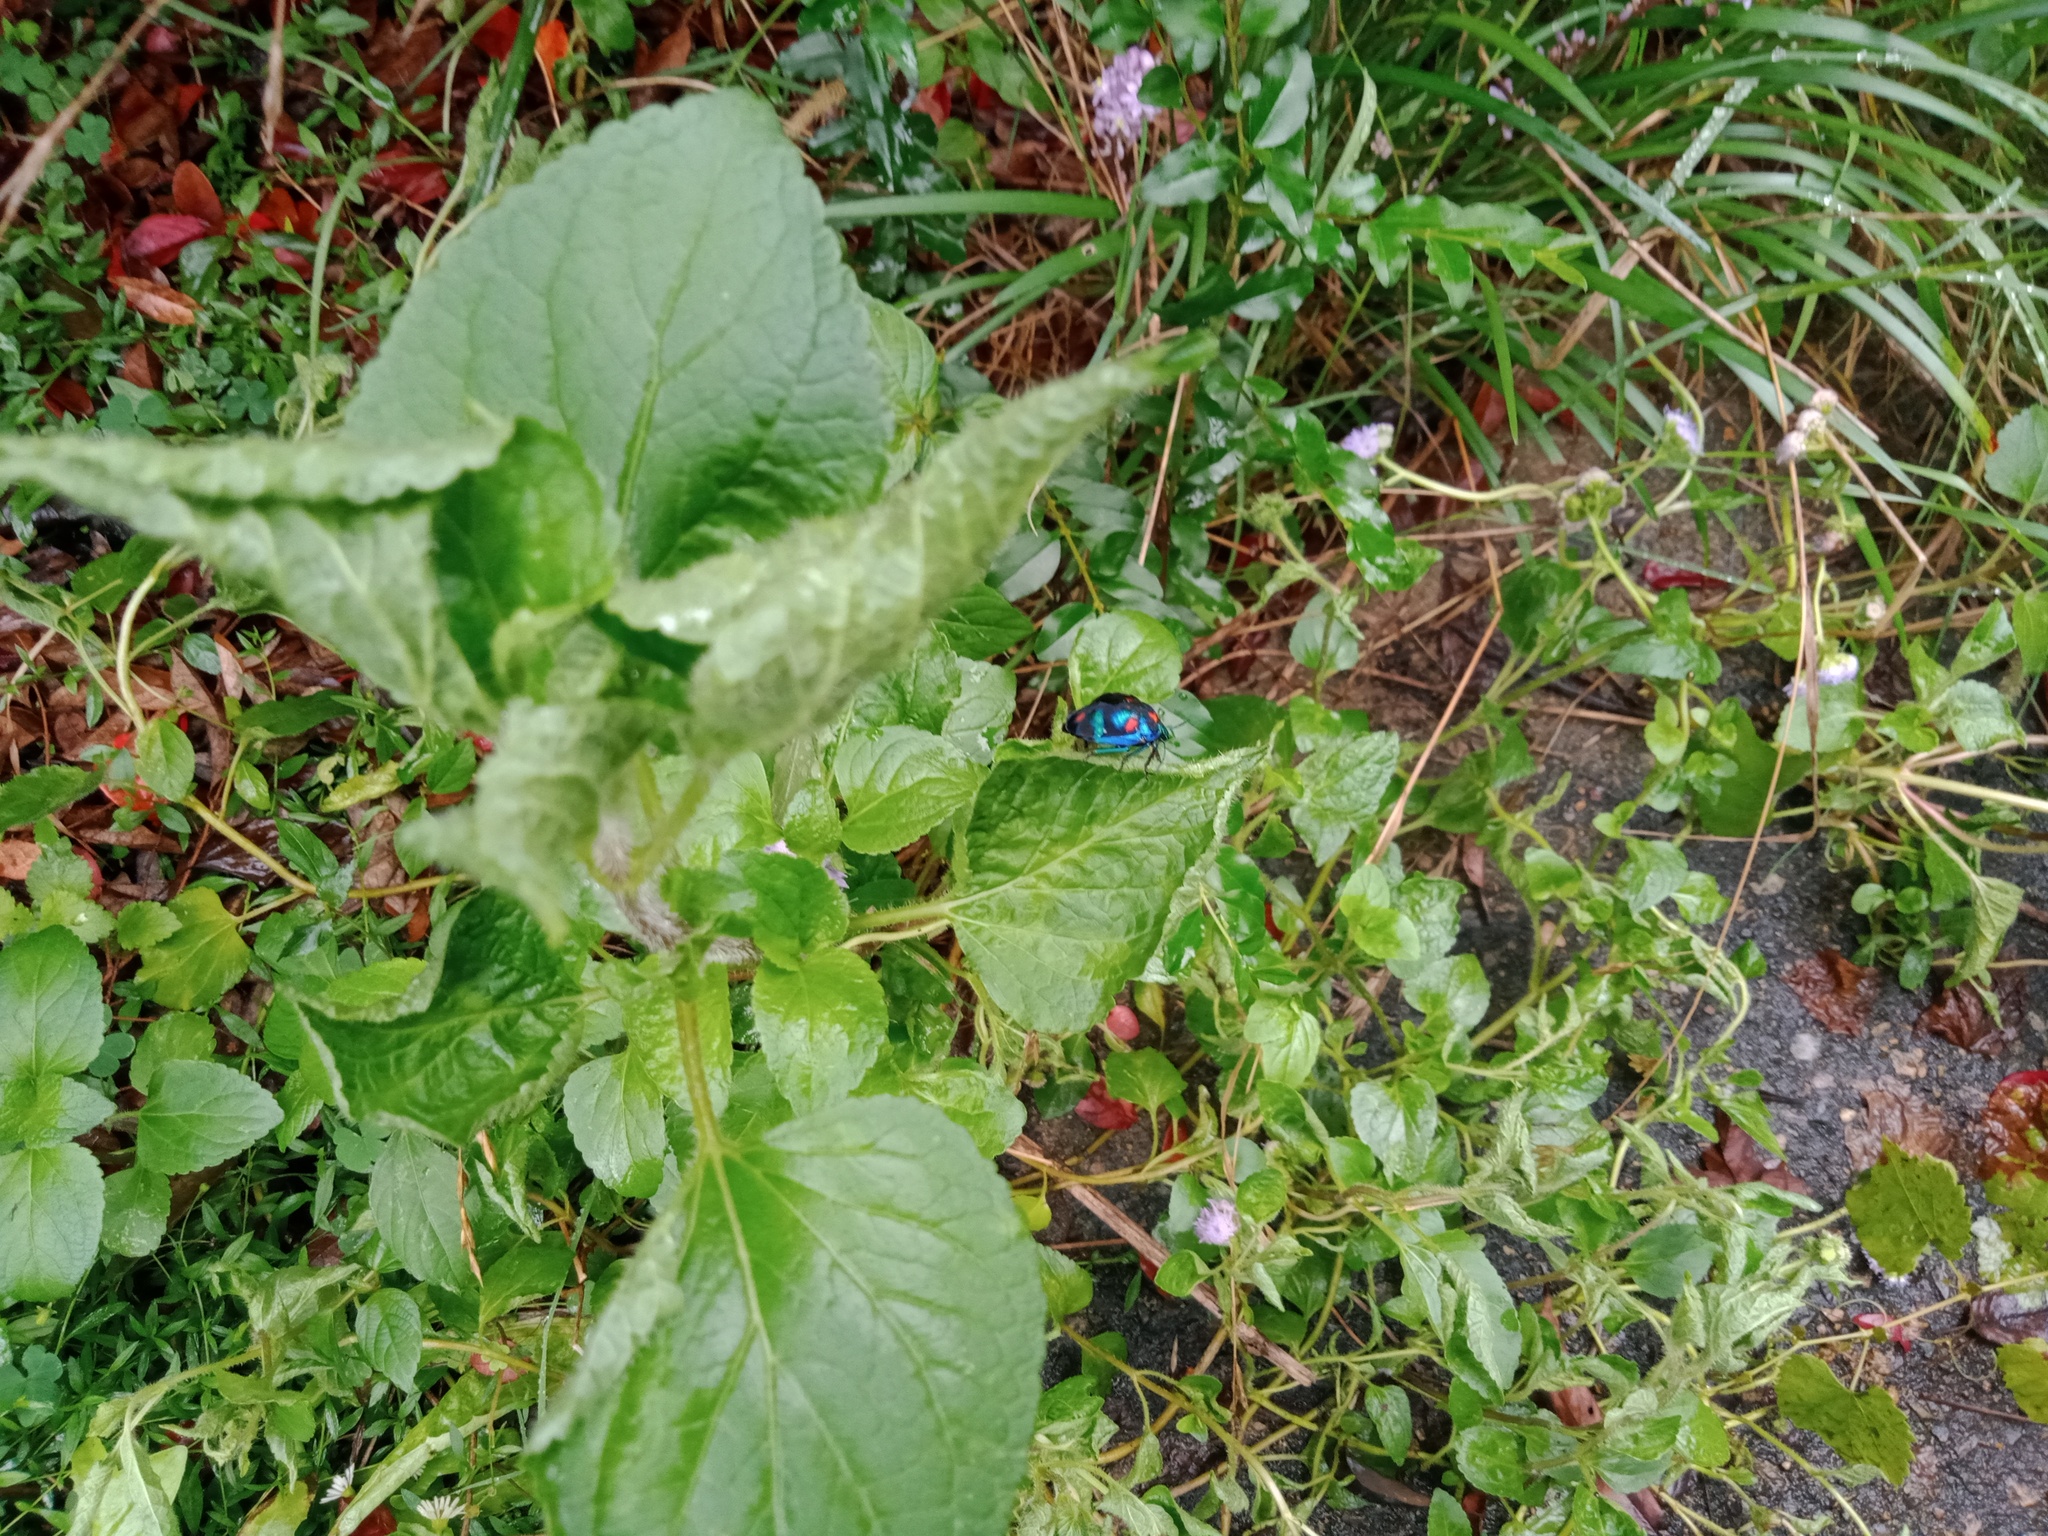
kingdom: Animalia
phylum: Arthropoda
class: Insecta
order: Hemiptera
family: Scutelleridae
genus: Tectocoris
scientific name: Tectocoris diophthalmus
